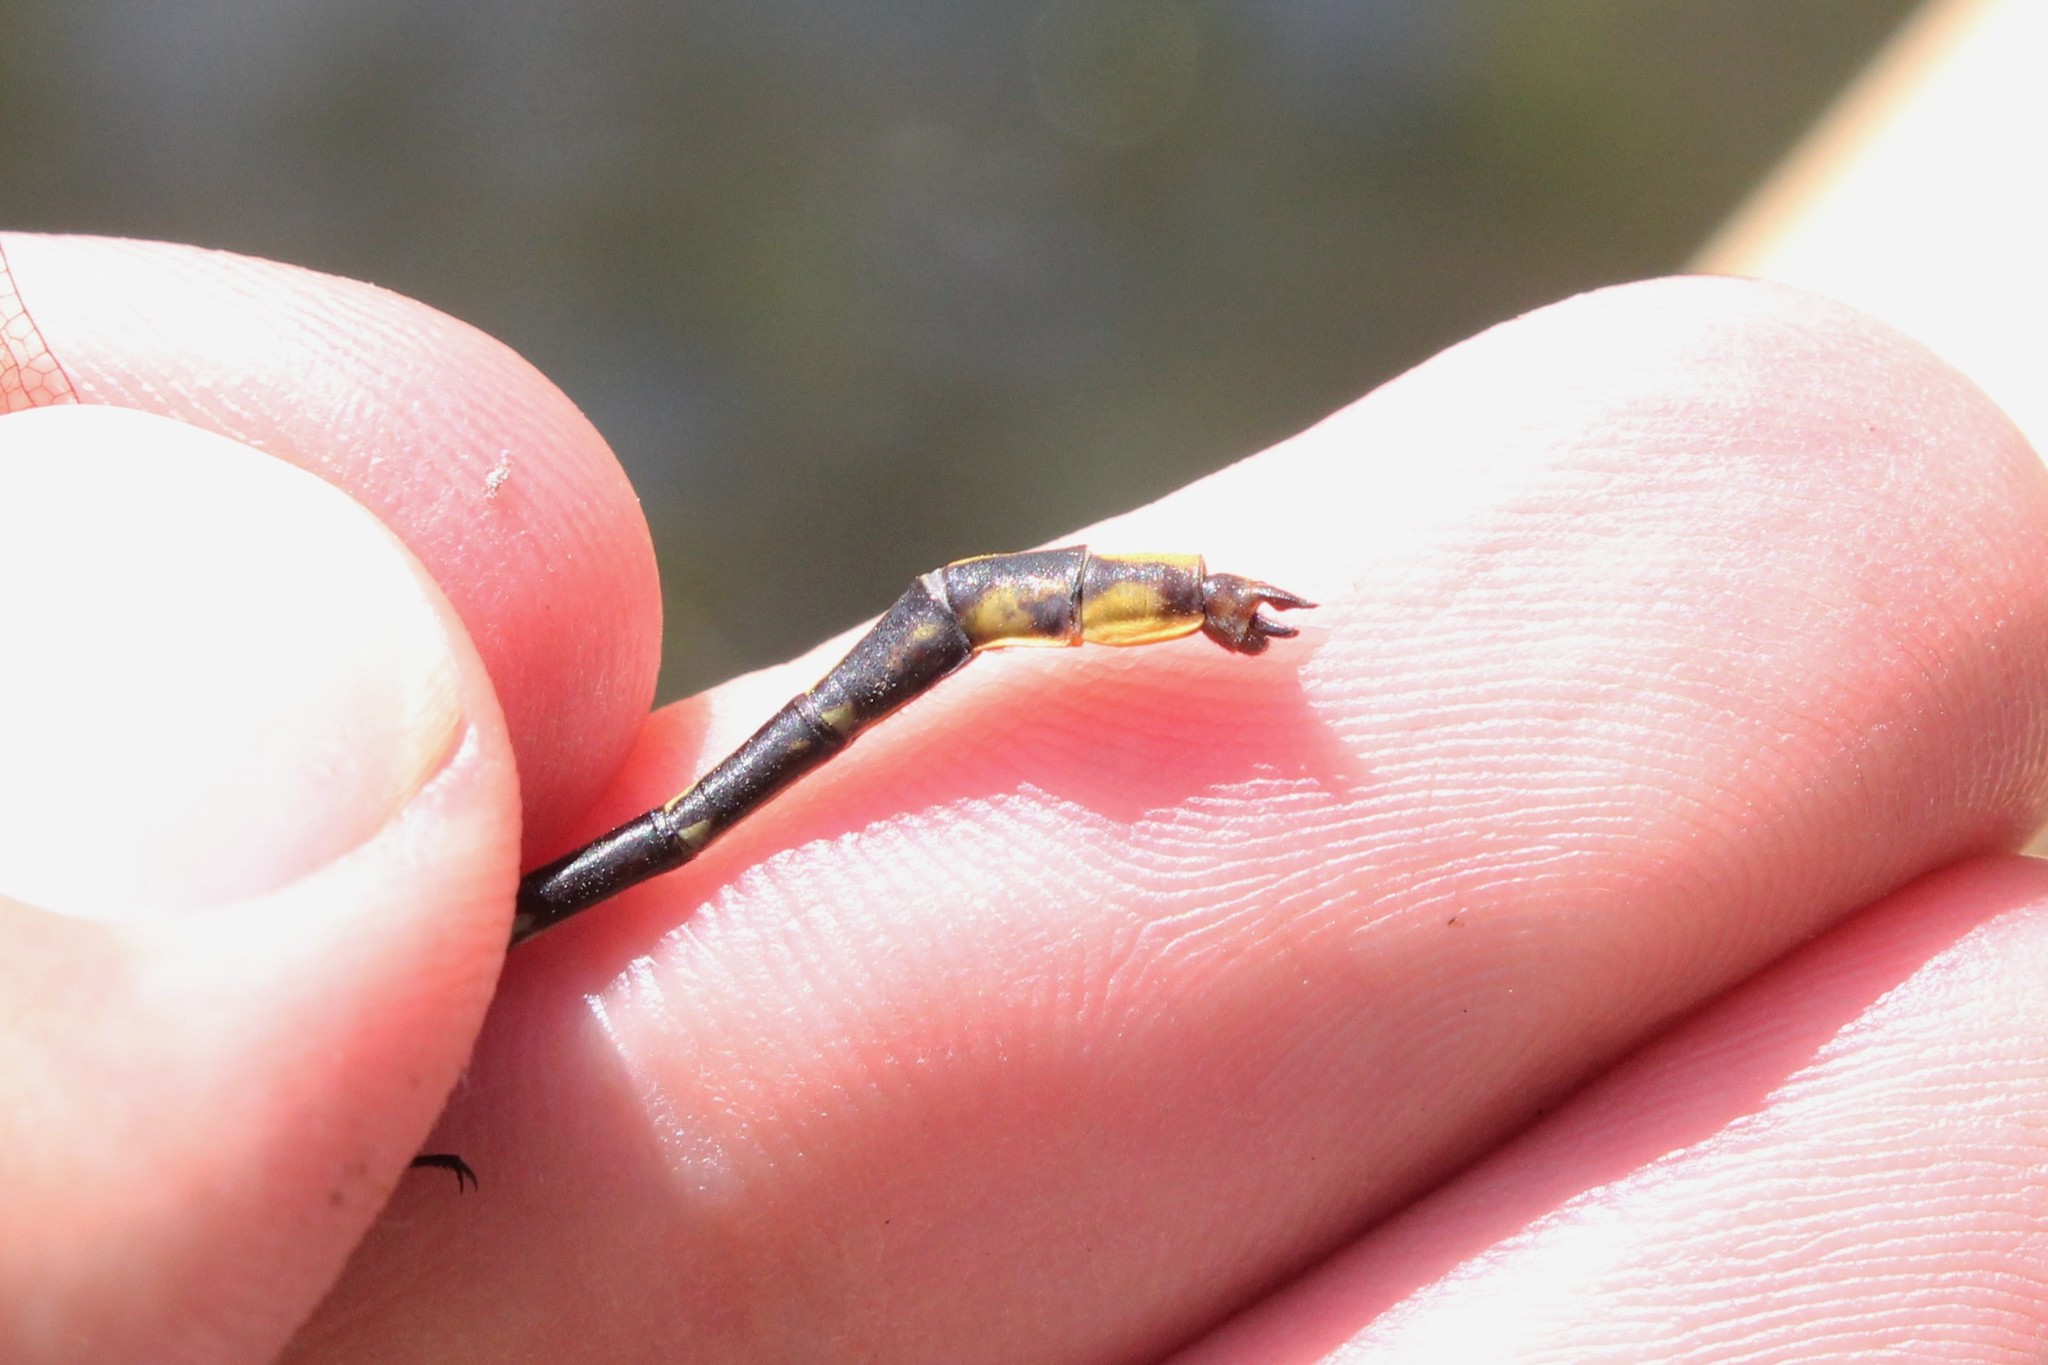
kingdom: Animalia
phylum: Arthropoda
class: Insecta
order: Odonata
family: Gomphidae
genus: Phanogomphus
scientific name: Phanogomphus exilis
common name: Lancet clubtail
